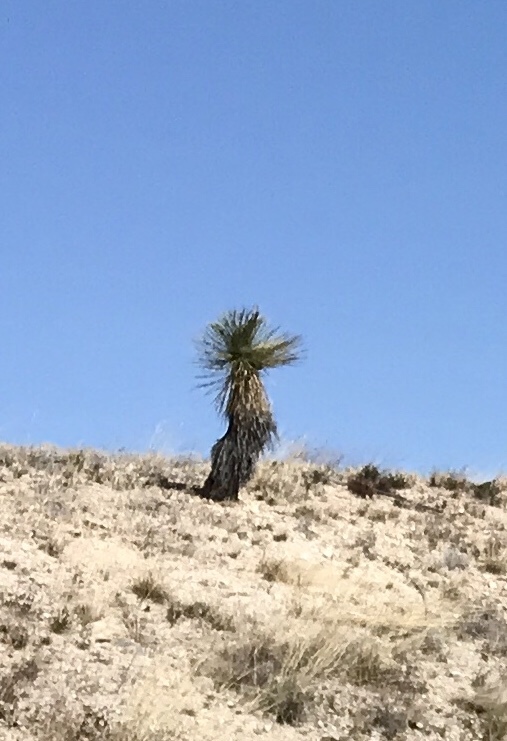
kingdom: Plantae
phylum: Tracheophyta
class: Liliopsida
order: Asparagales
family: Asparagaceae
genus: Yucca
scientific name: Yucca elata
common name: Palmella
